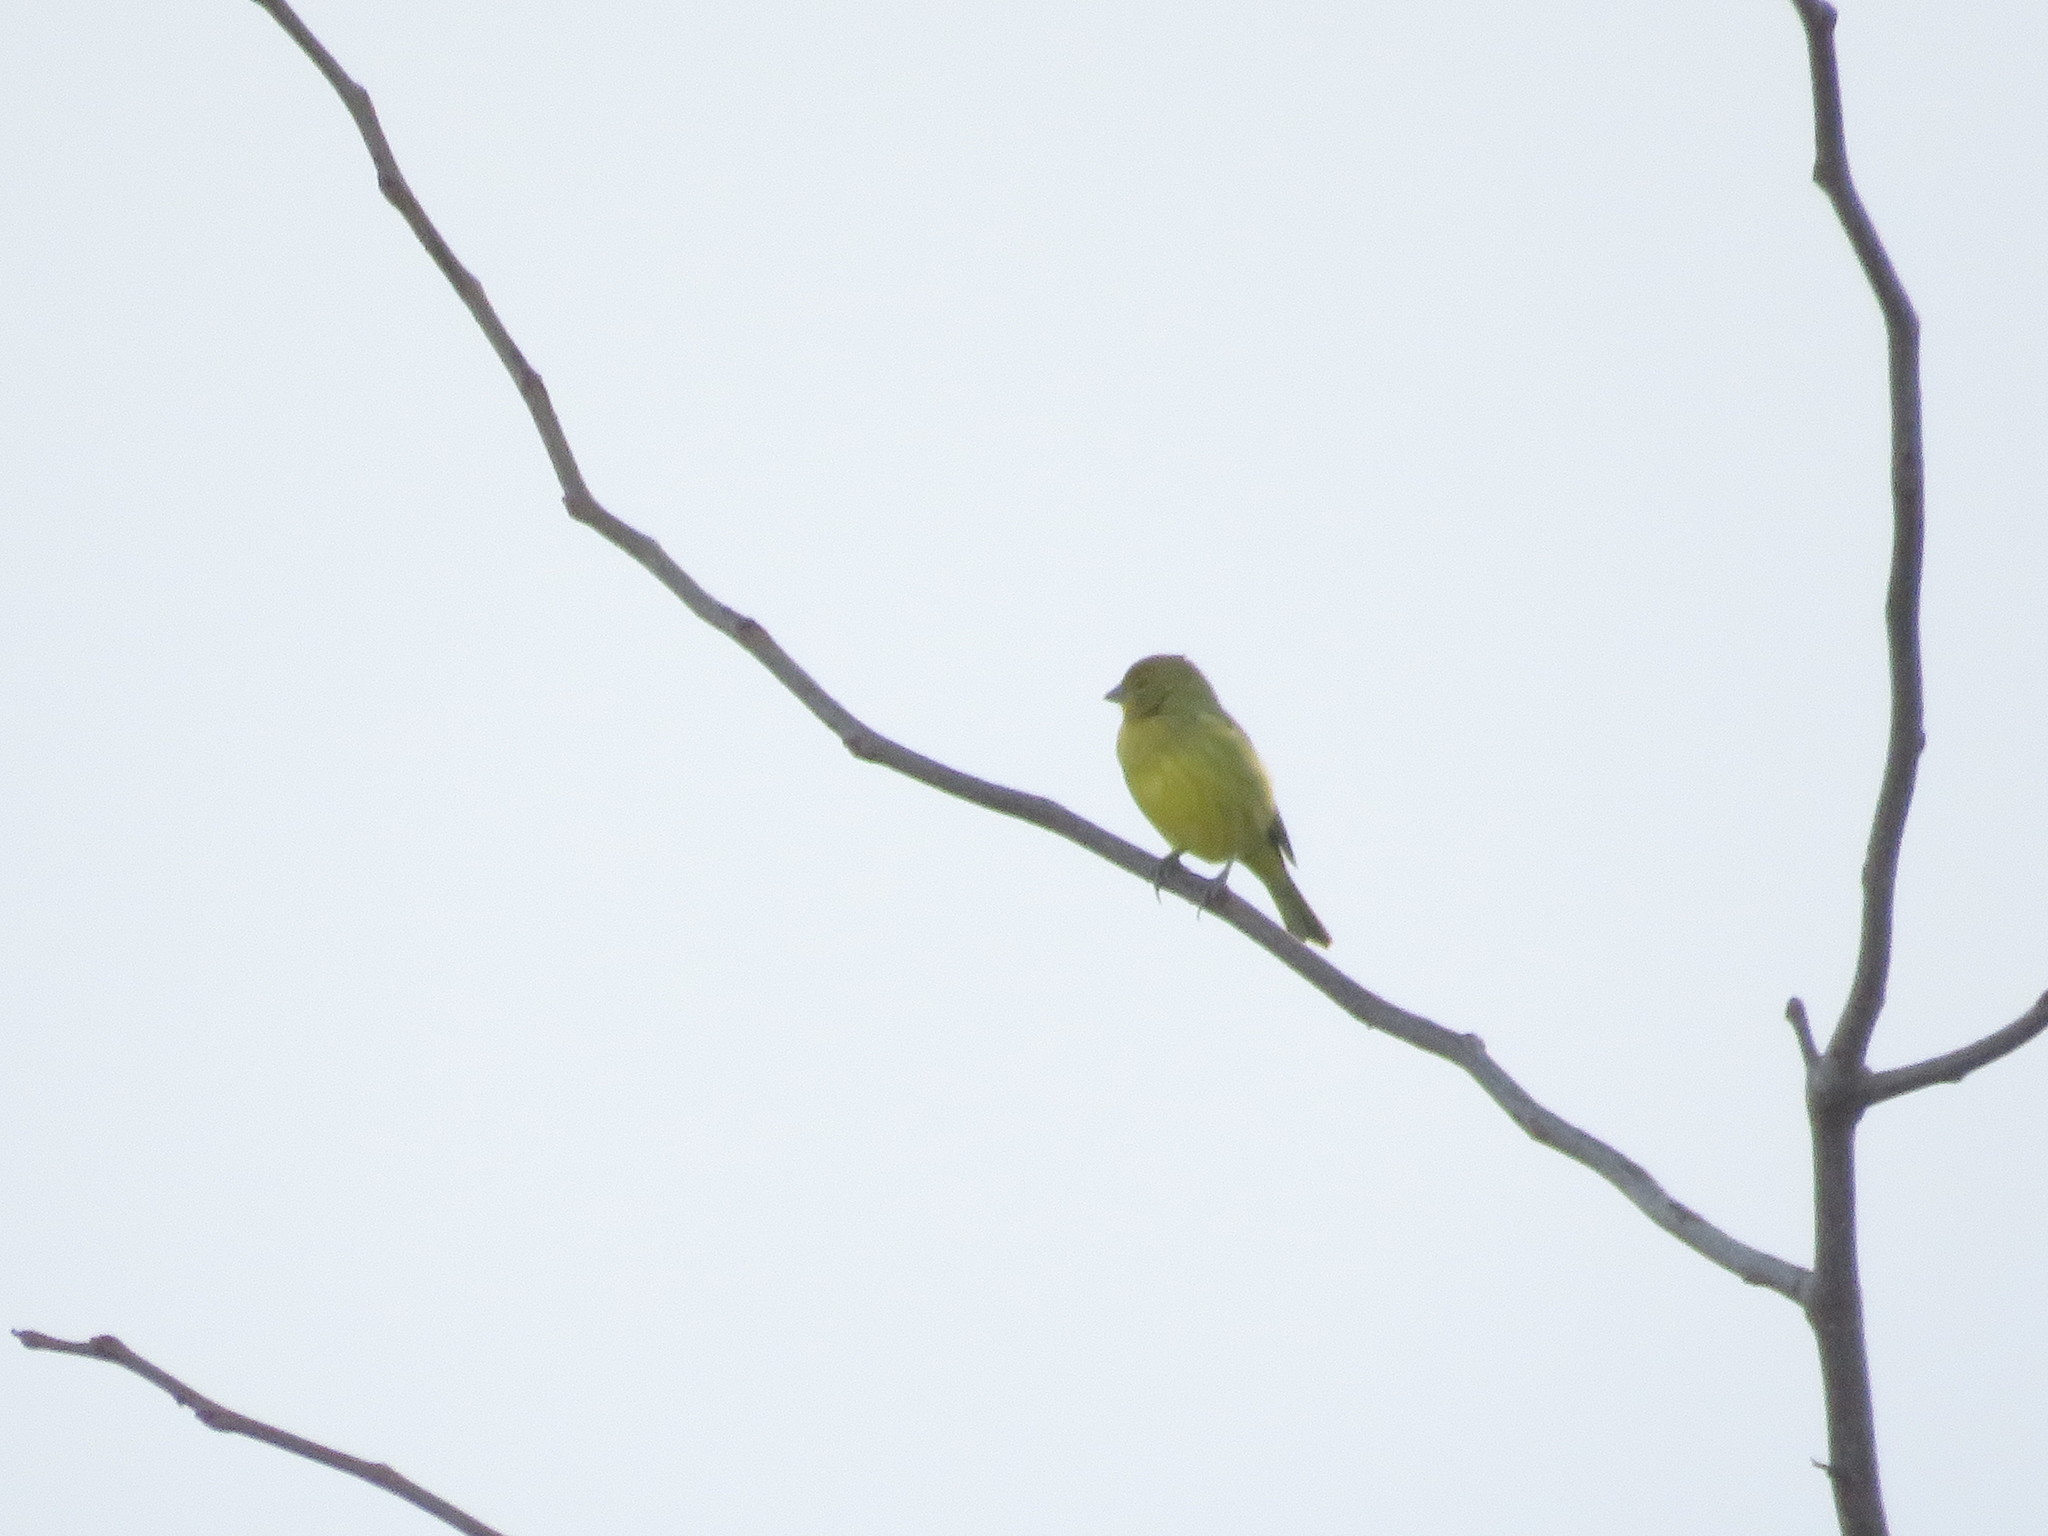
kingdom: Animalia
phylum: Chordata
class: Aves
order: Passeriformes
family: Thraupidae
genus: Sicalis
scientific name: Sicalis flaveola
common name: Saffron finch
